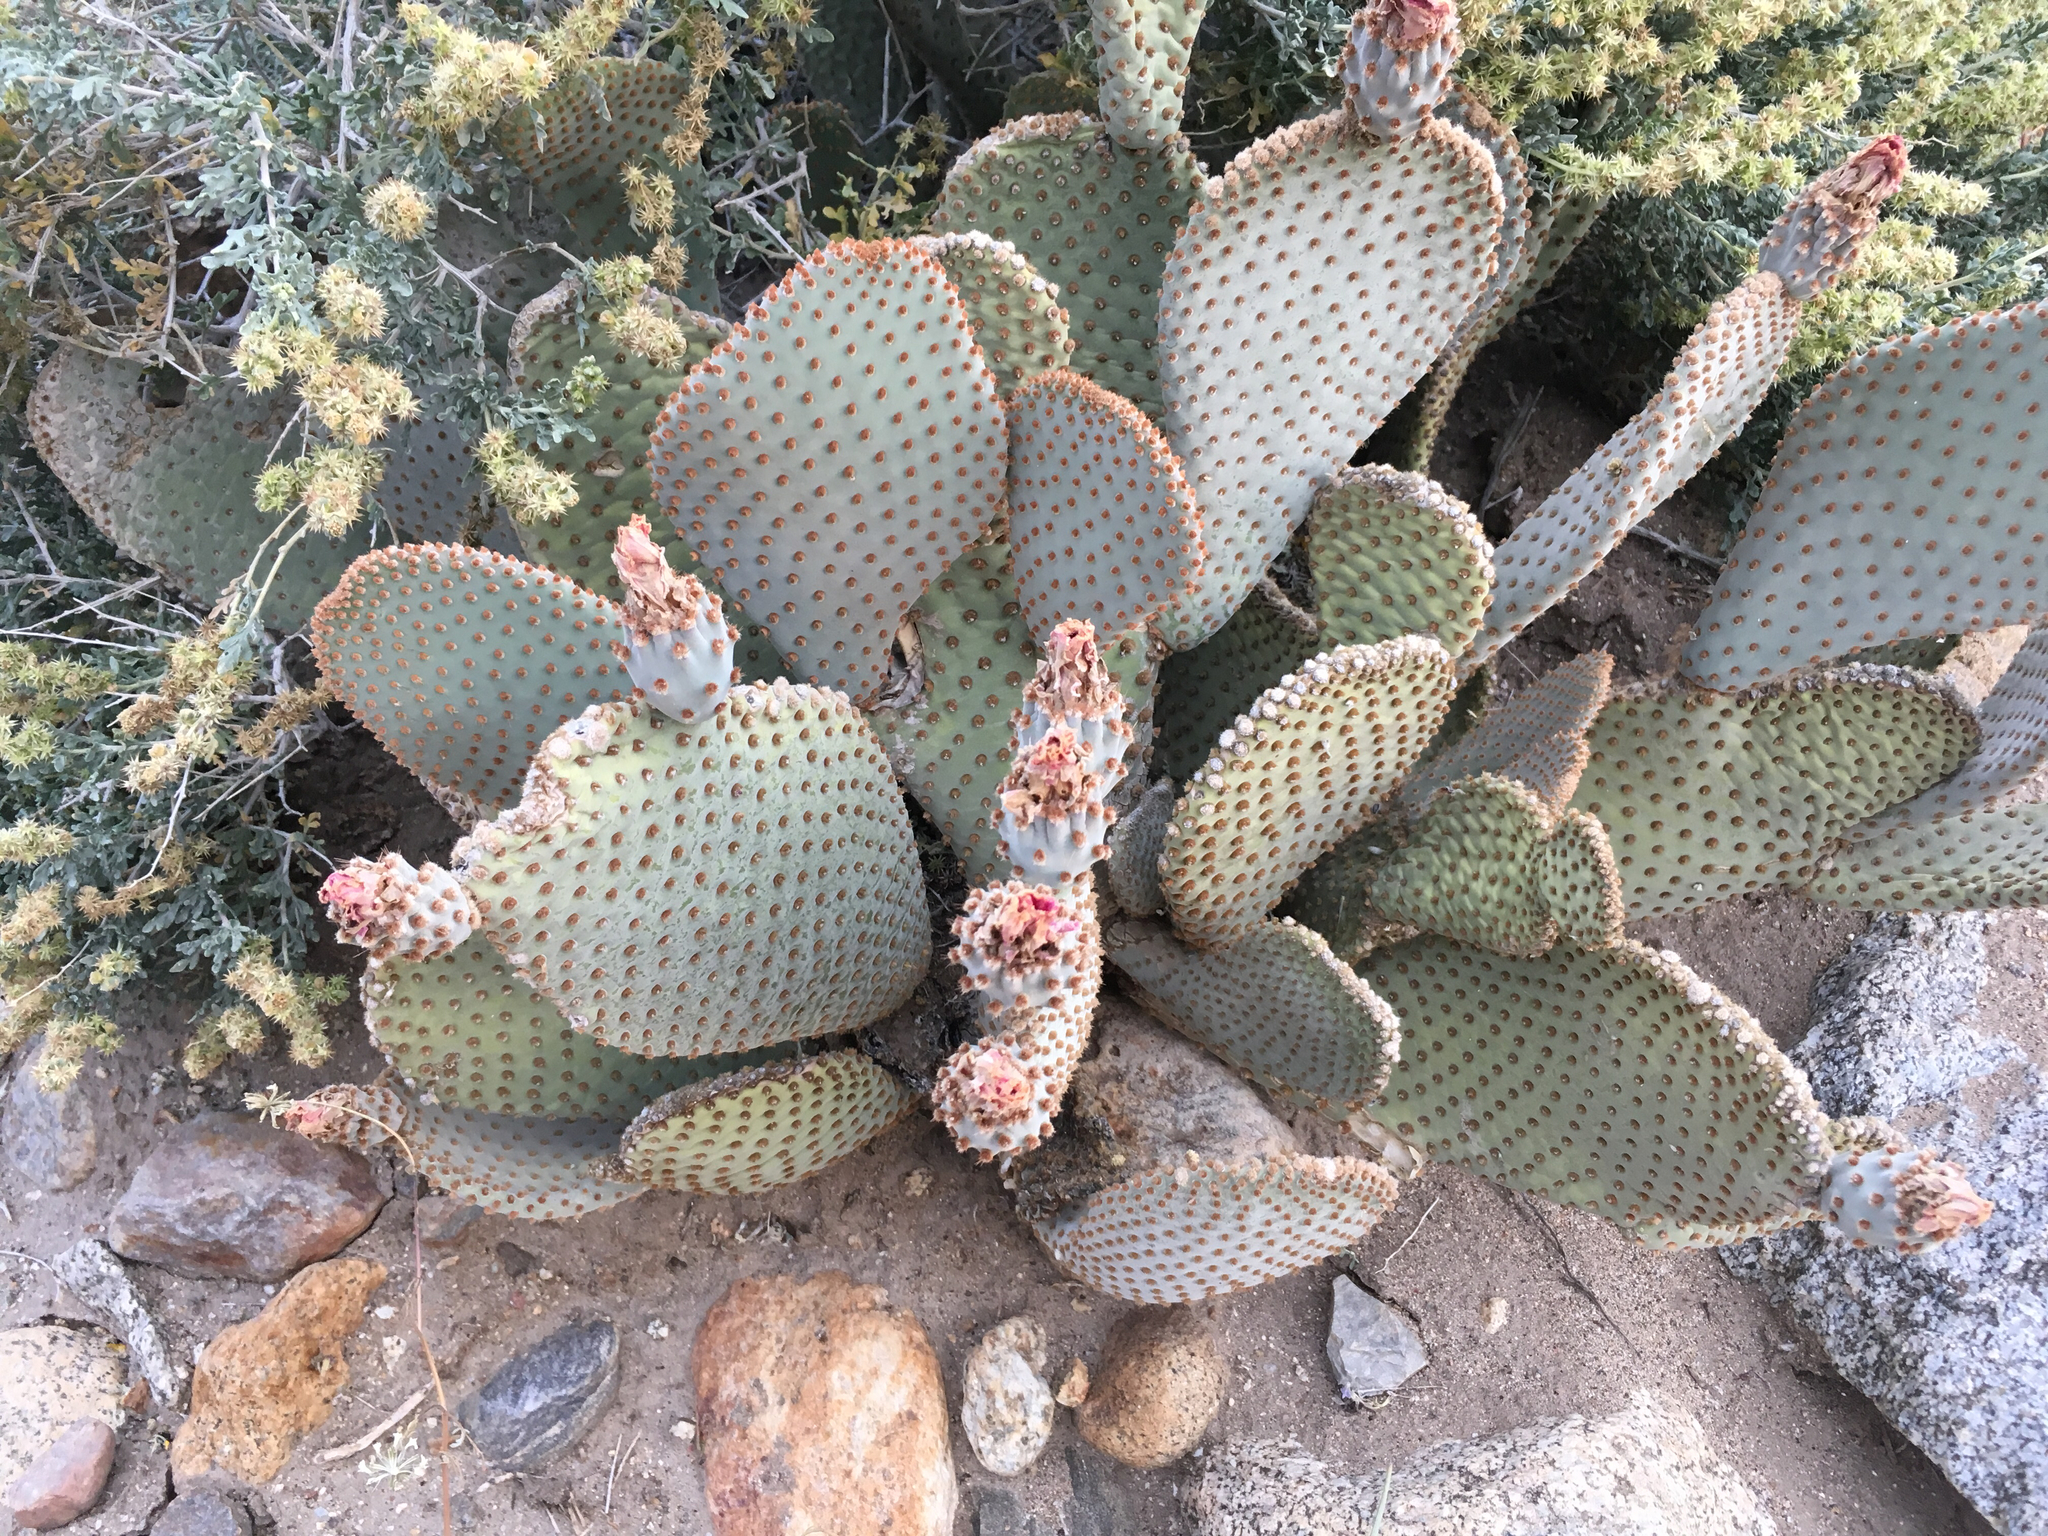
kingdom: Plantae
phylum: Tracheophyta
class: Magnoliopsida
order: Caryophyllales
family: Cactaceae
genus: Opuntia
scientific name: Opuntia basilaris
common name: Beavertail prickly-pear
